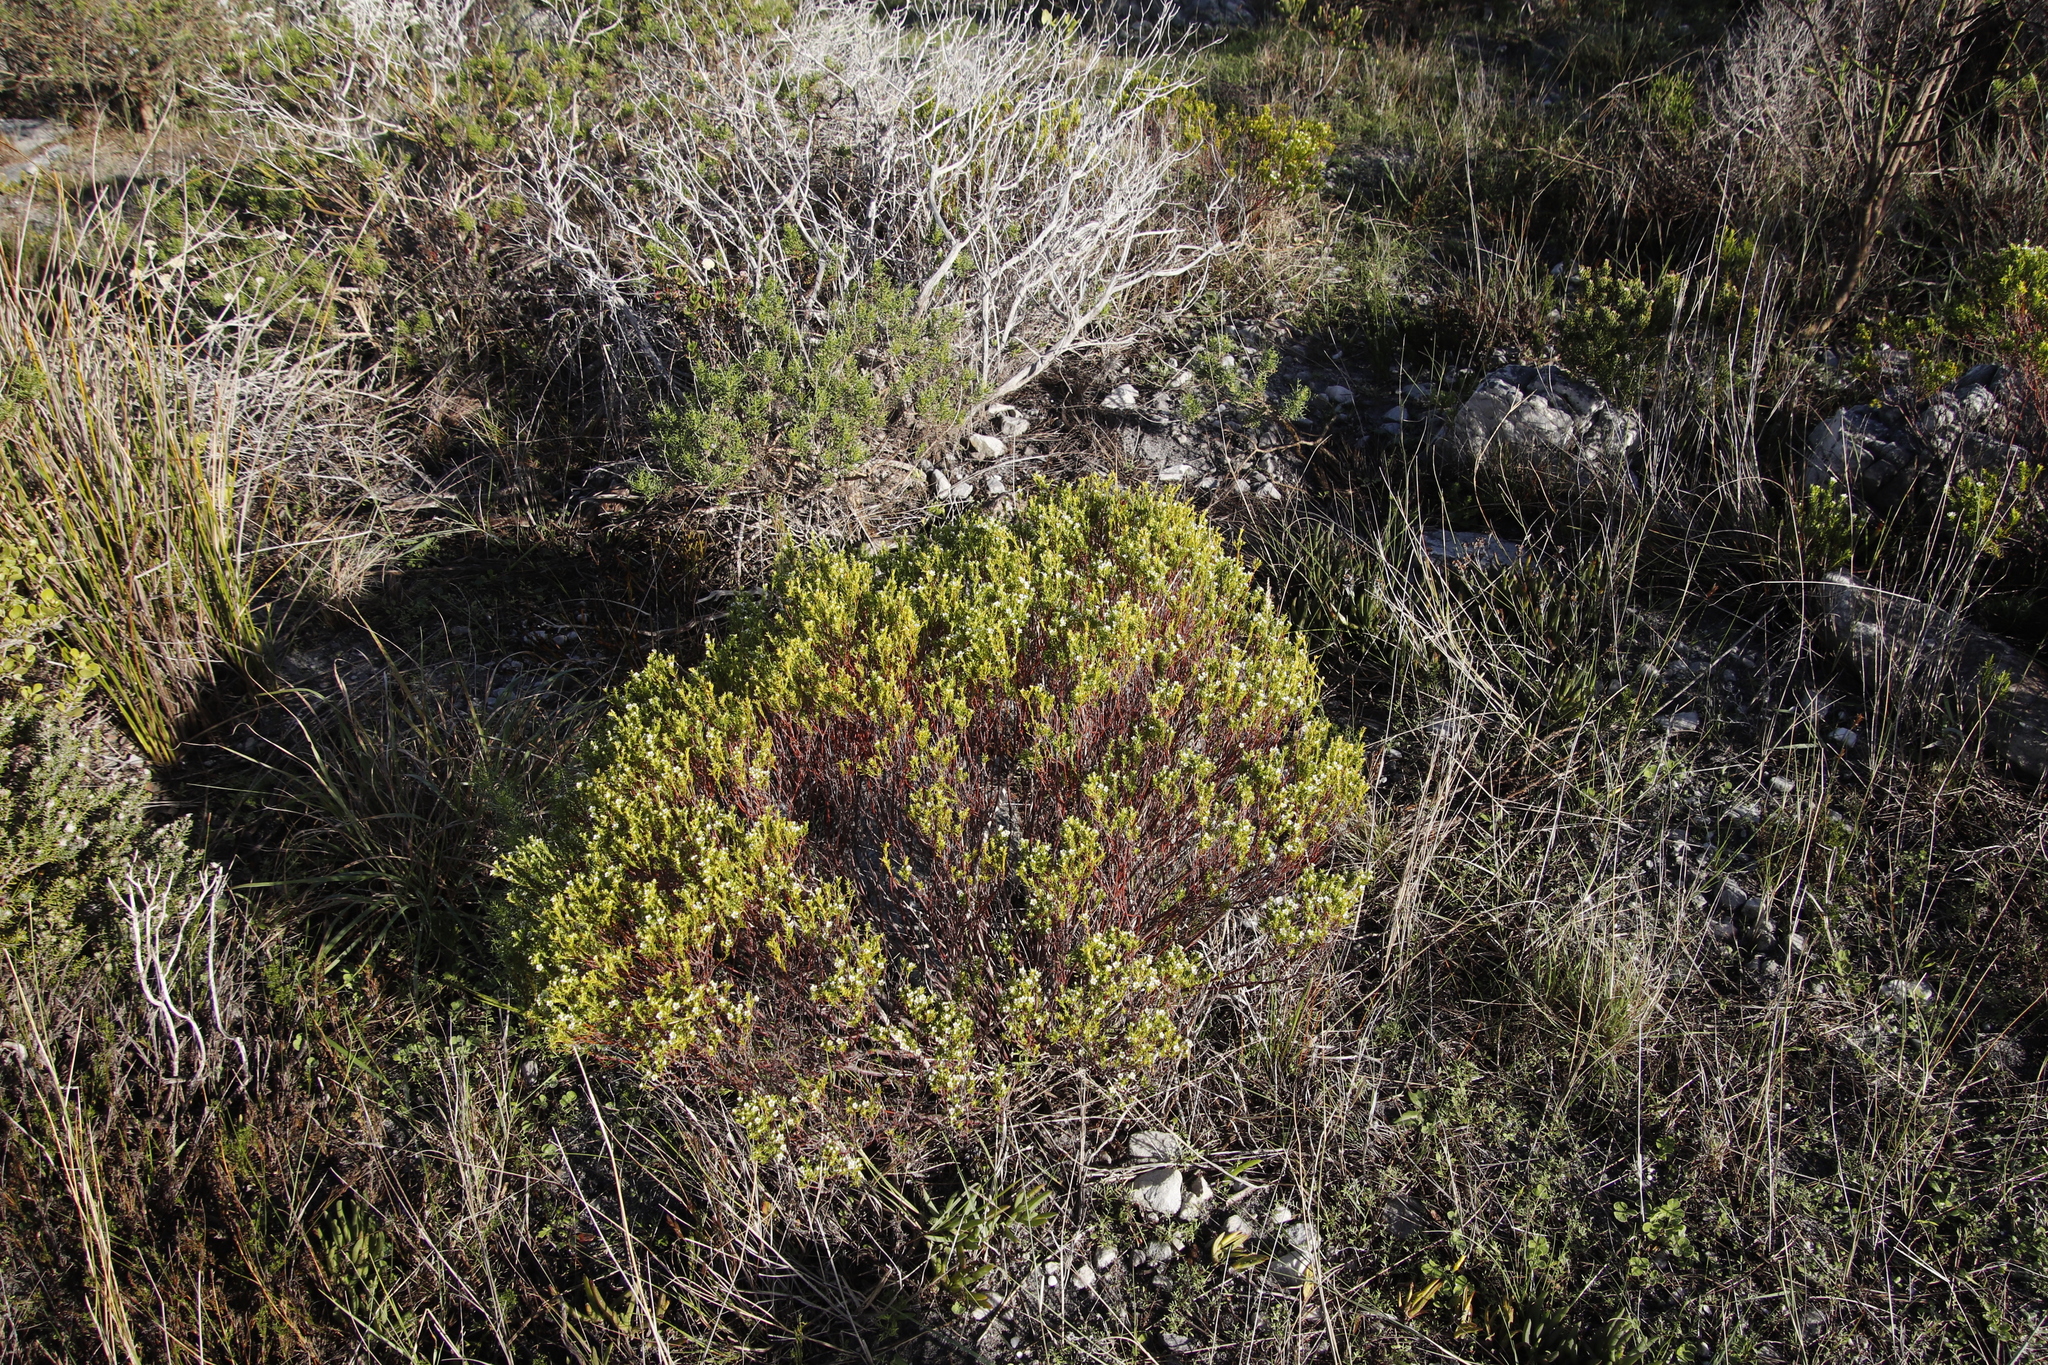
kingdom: Plantae
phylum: Tracheophyta
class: Magnoliopsida
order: Sapindales
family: Rutaceae
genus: Diosma
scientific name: Diosma hirsuta
